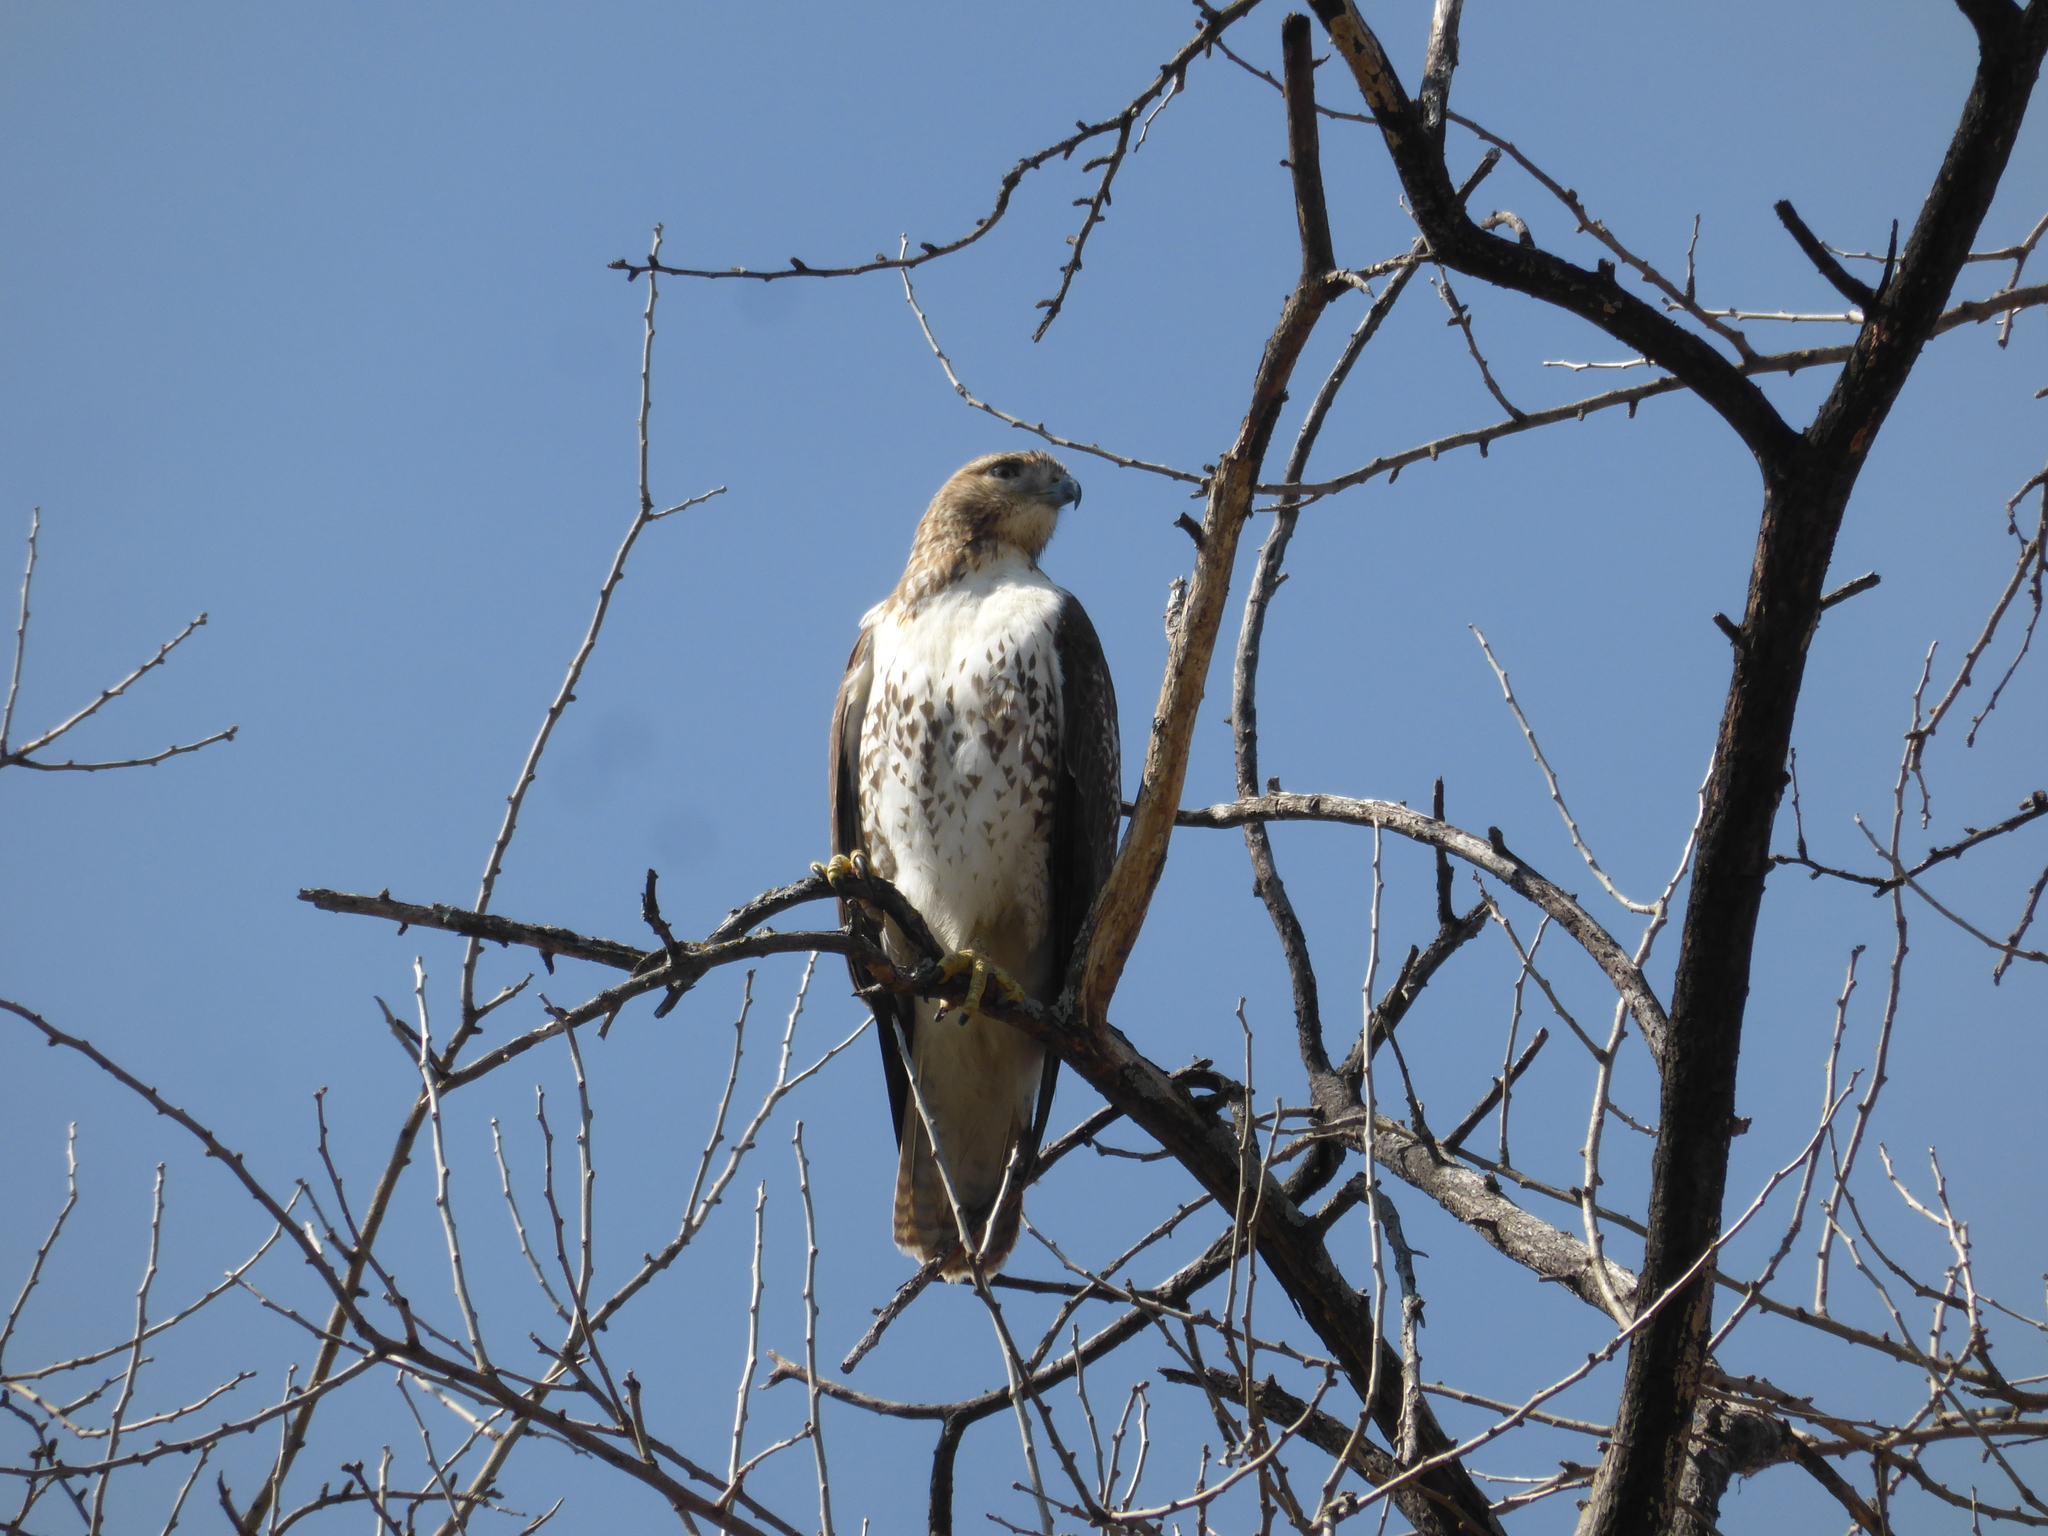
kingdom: Animalia
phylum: Chordata
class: Aves
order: Accipitriformes
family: Accipitridae
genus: Buteo
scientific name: Buteo jamaicensis
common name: Red-tailed hawk
